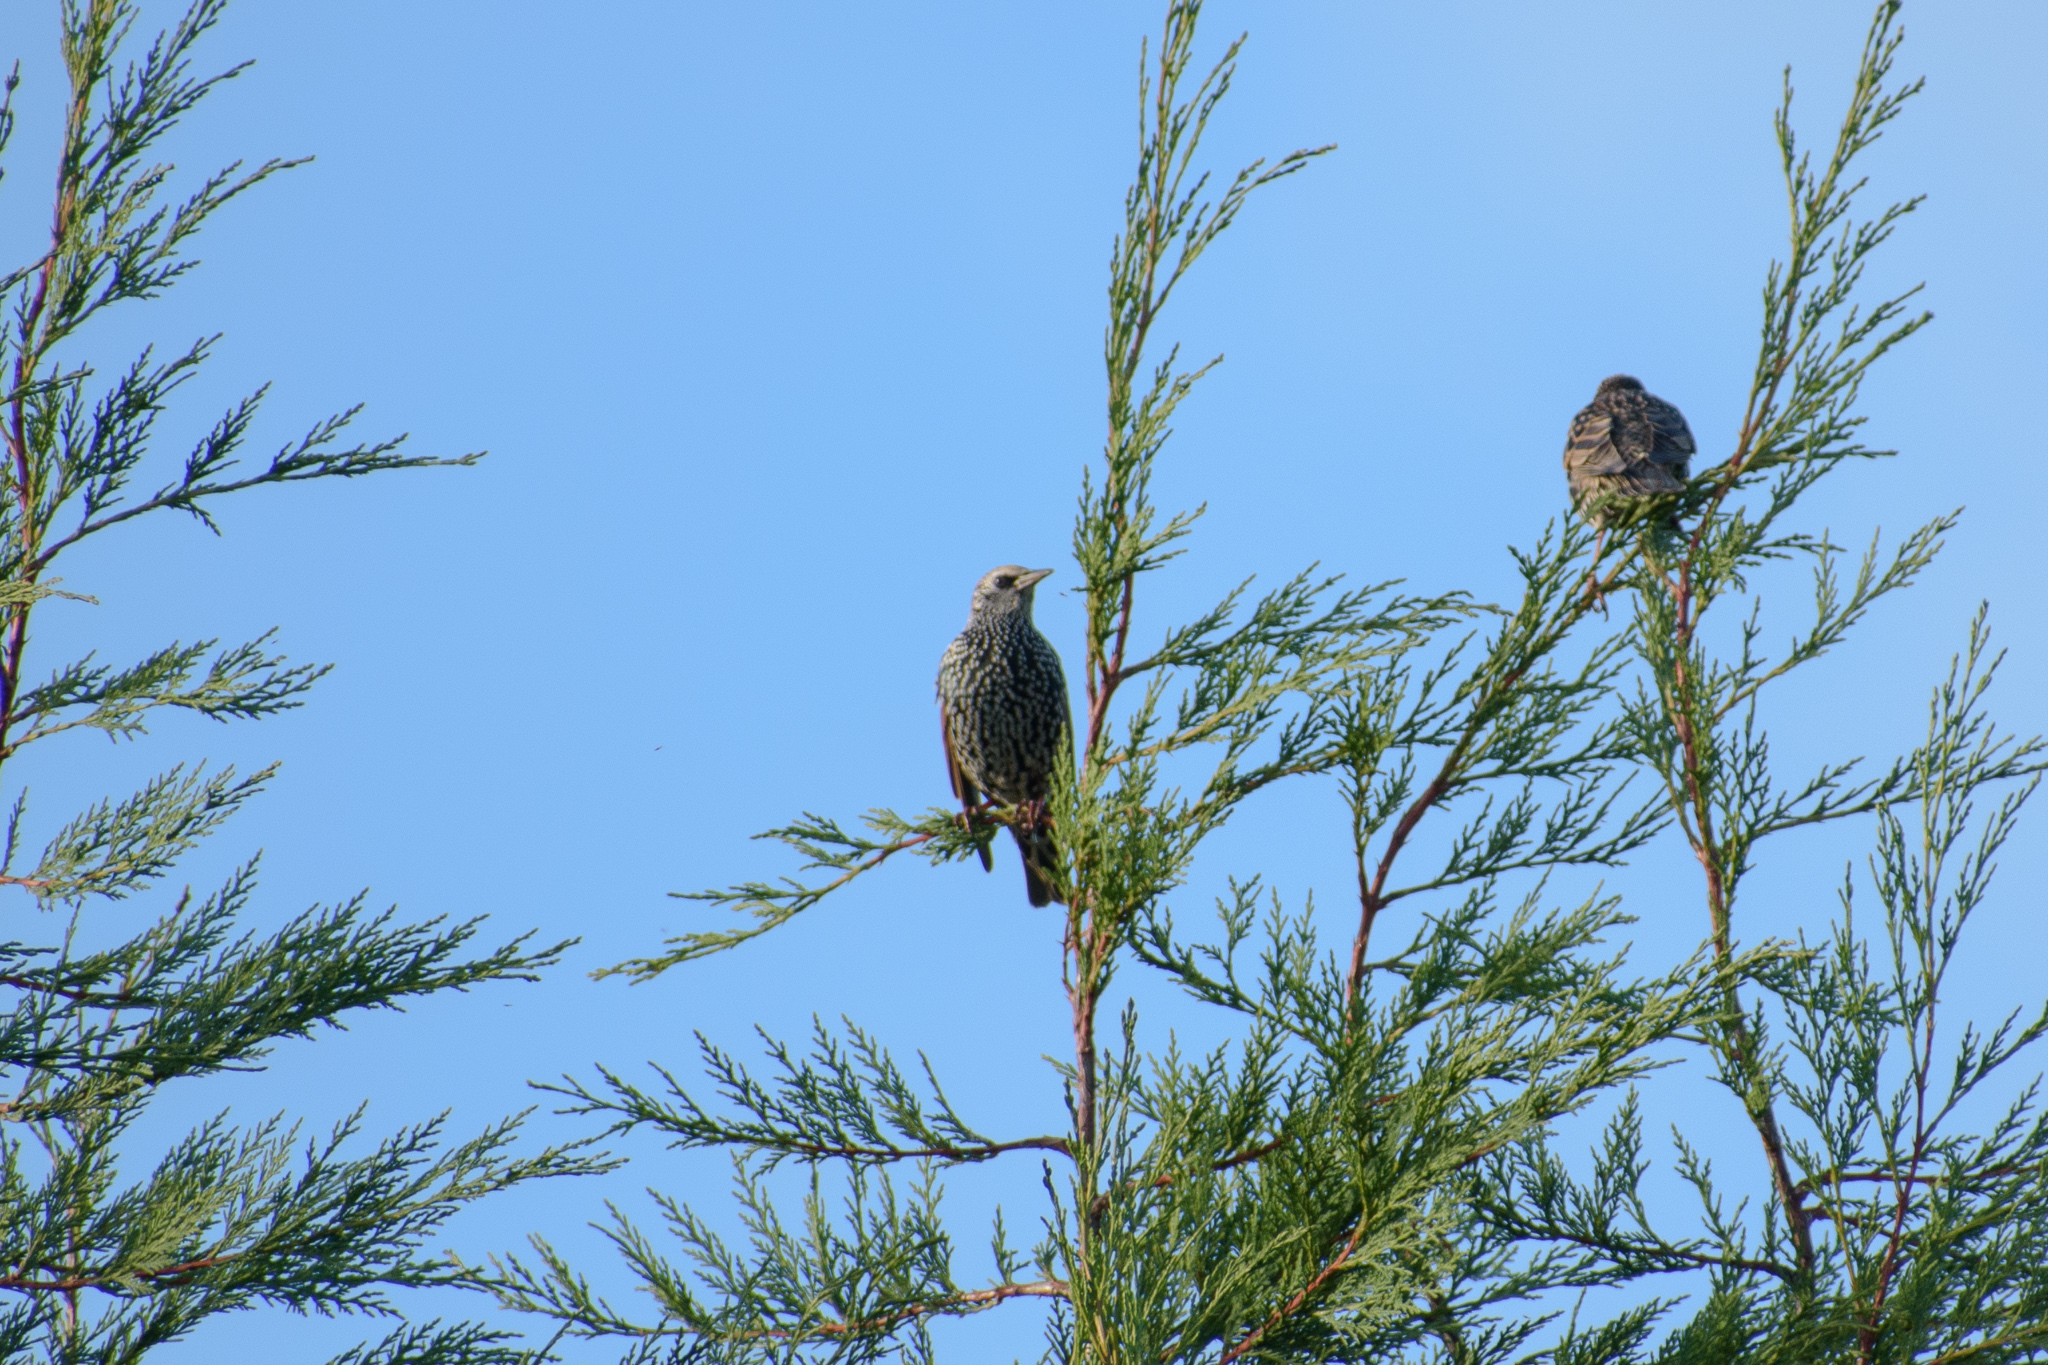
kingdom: Animalia
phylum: Chordata
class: Aves
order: Passeriformes
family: Sturnidae
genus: Sturnus
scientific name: Sturnus vulgaris
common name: Common starling
